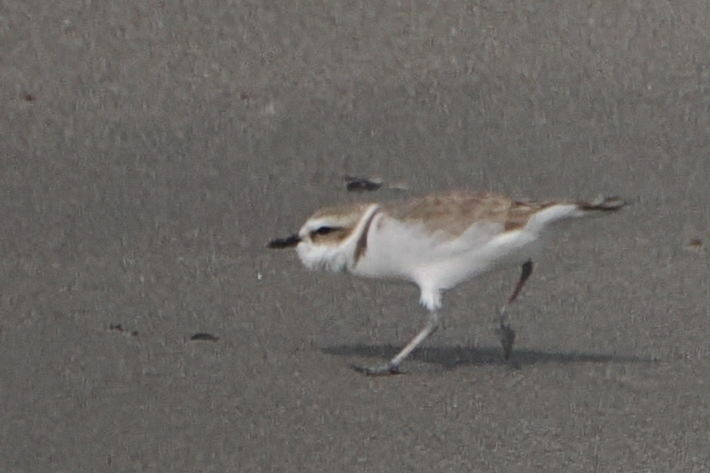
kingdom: Animalia
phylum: Chordata
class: Aves
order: Charadriiformes
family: Charadriidae
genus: Anarhynchus
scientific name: Anarhynchus
